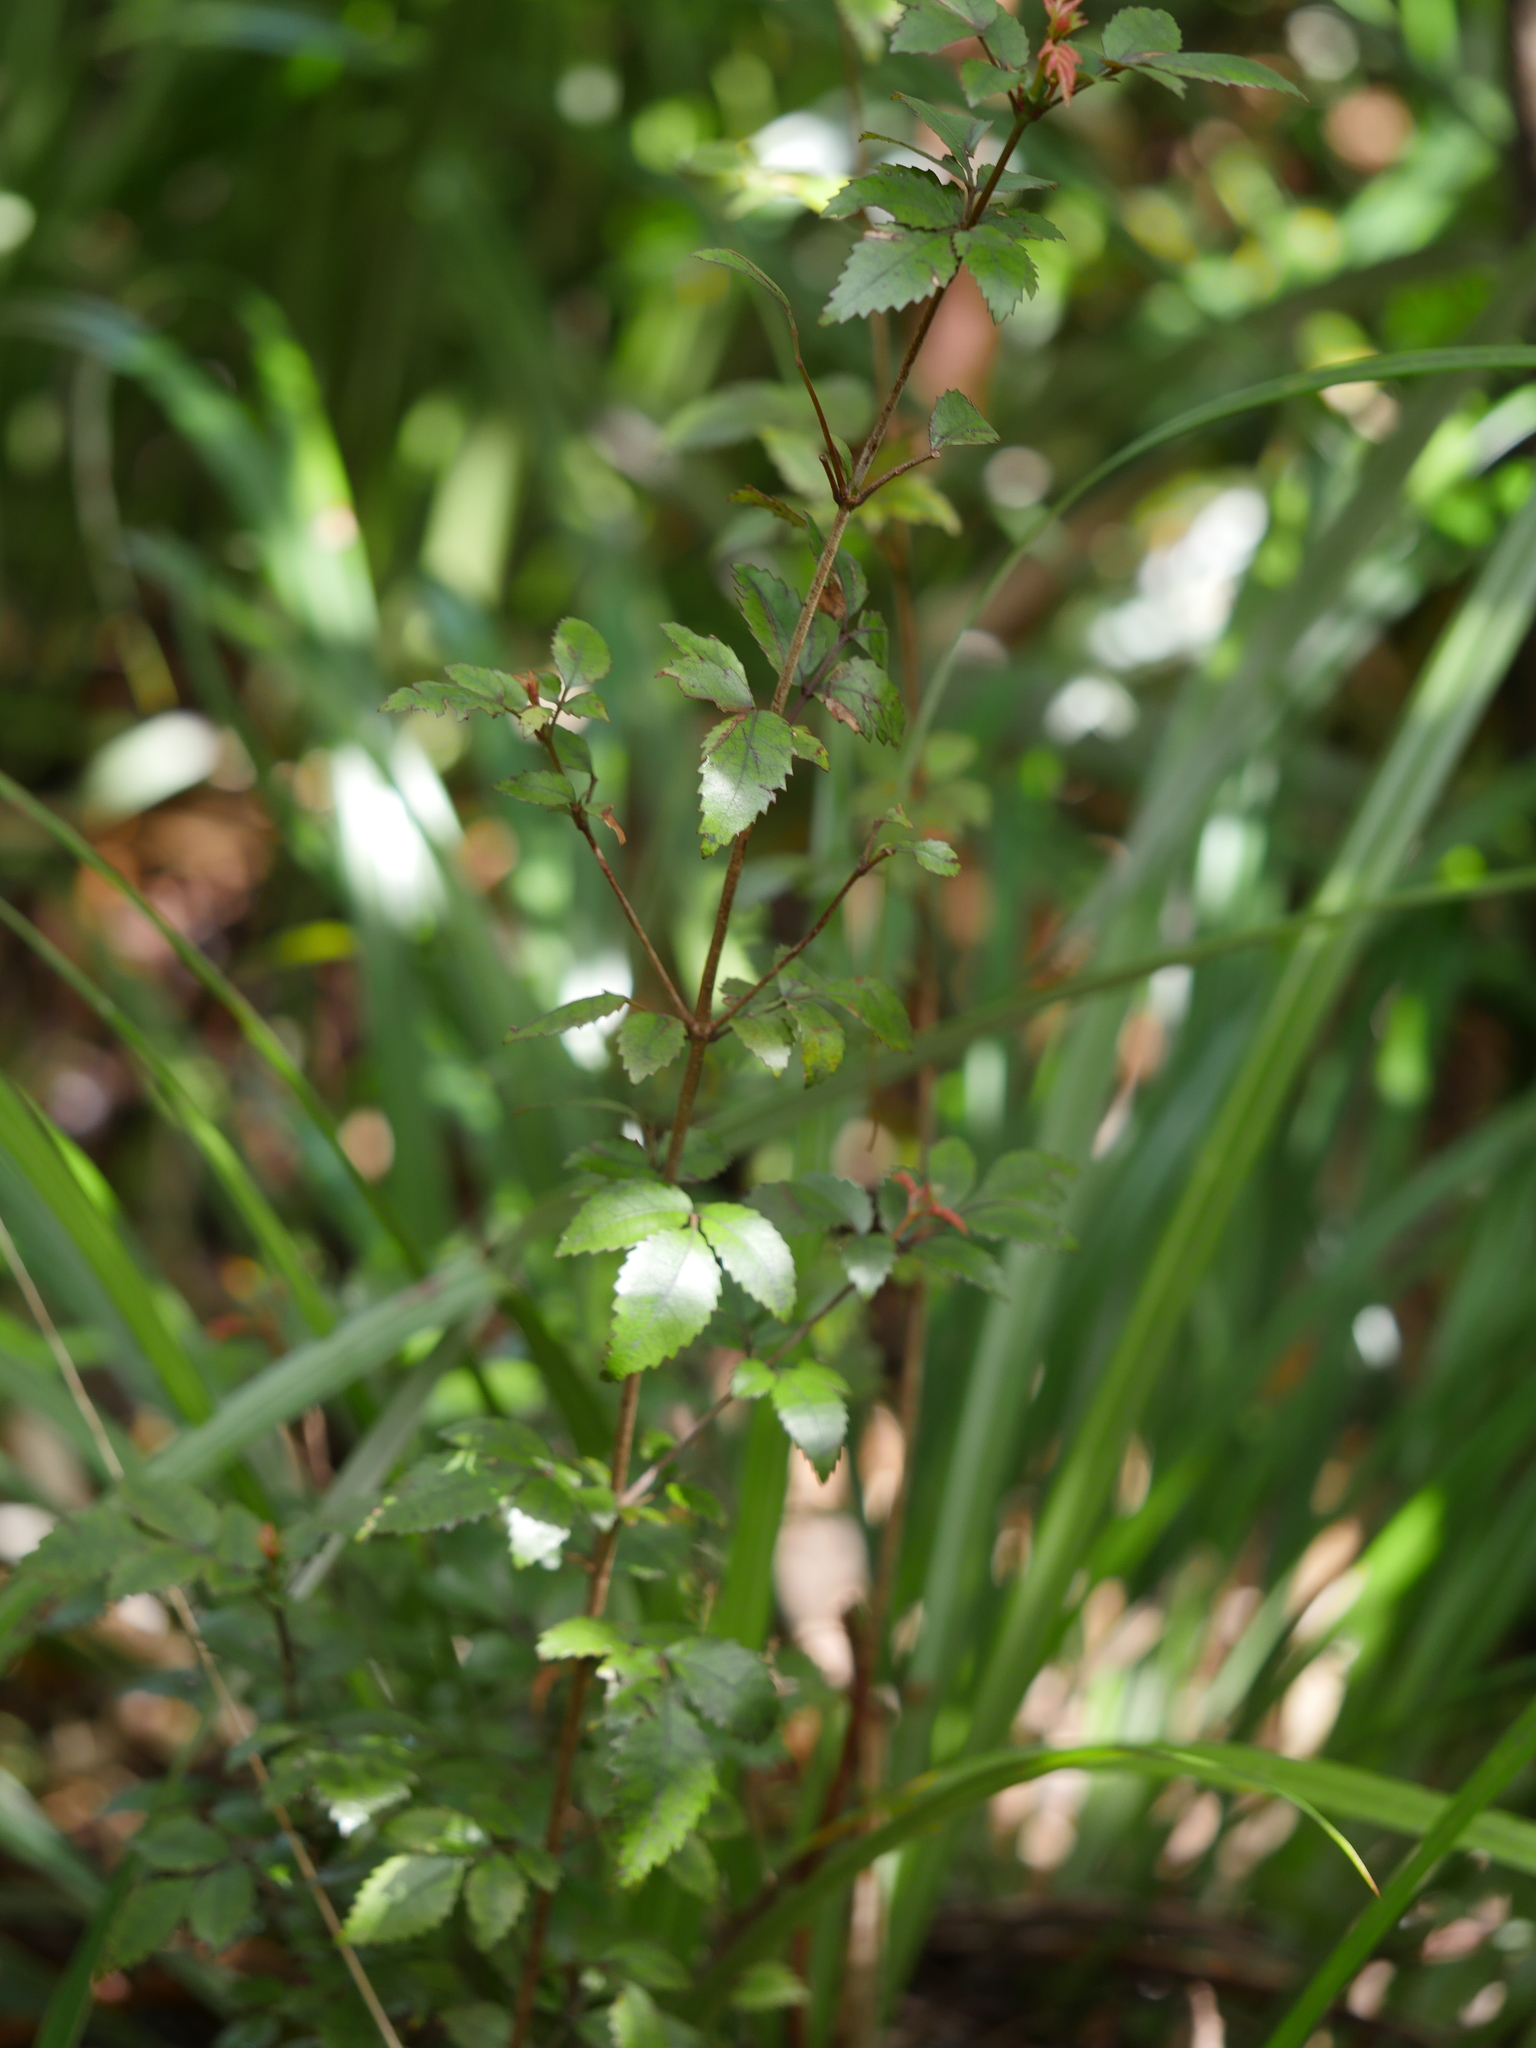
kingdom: Plantae
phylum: Tracheophyta
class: Magnoliopsida
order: Oxalidales
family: Cunoniaceae
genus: Pterophylla
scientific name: Pterophylla racemosa
